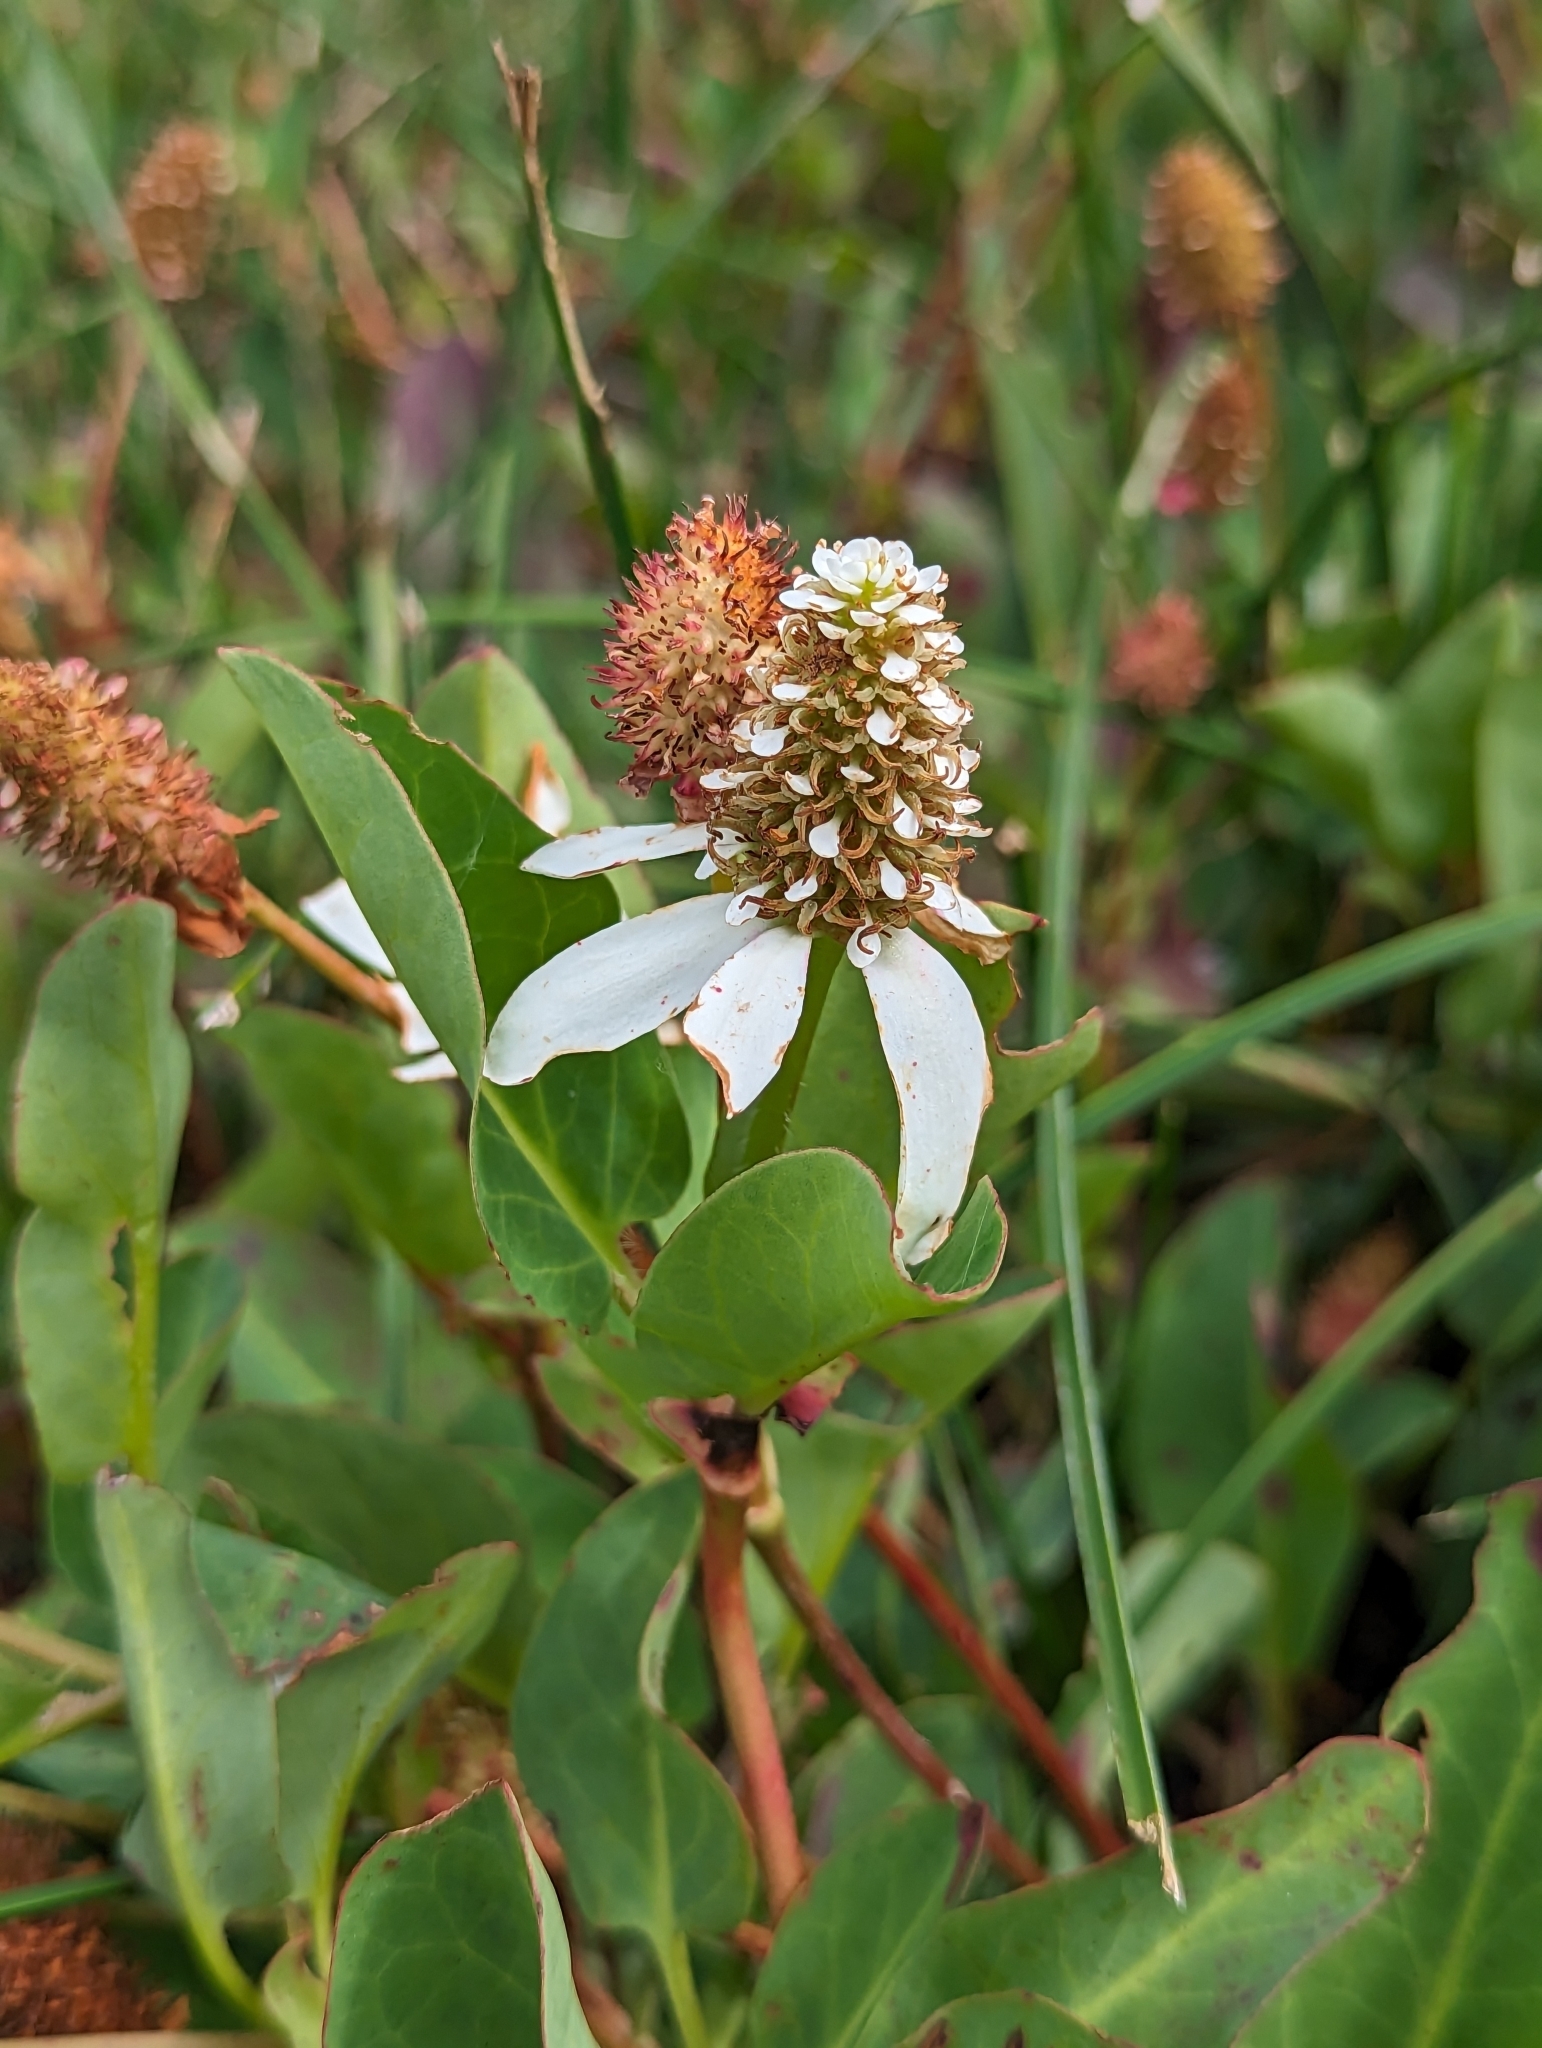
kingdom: Plantae
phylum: Tracheophyta
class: Magnoliopsida
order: Piperales
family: Saururaceae
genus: Anemopsis
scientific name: Anemopsis californica
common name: Apache-beads
